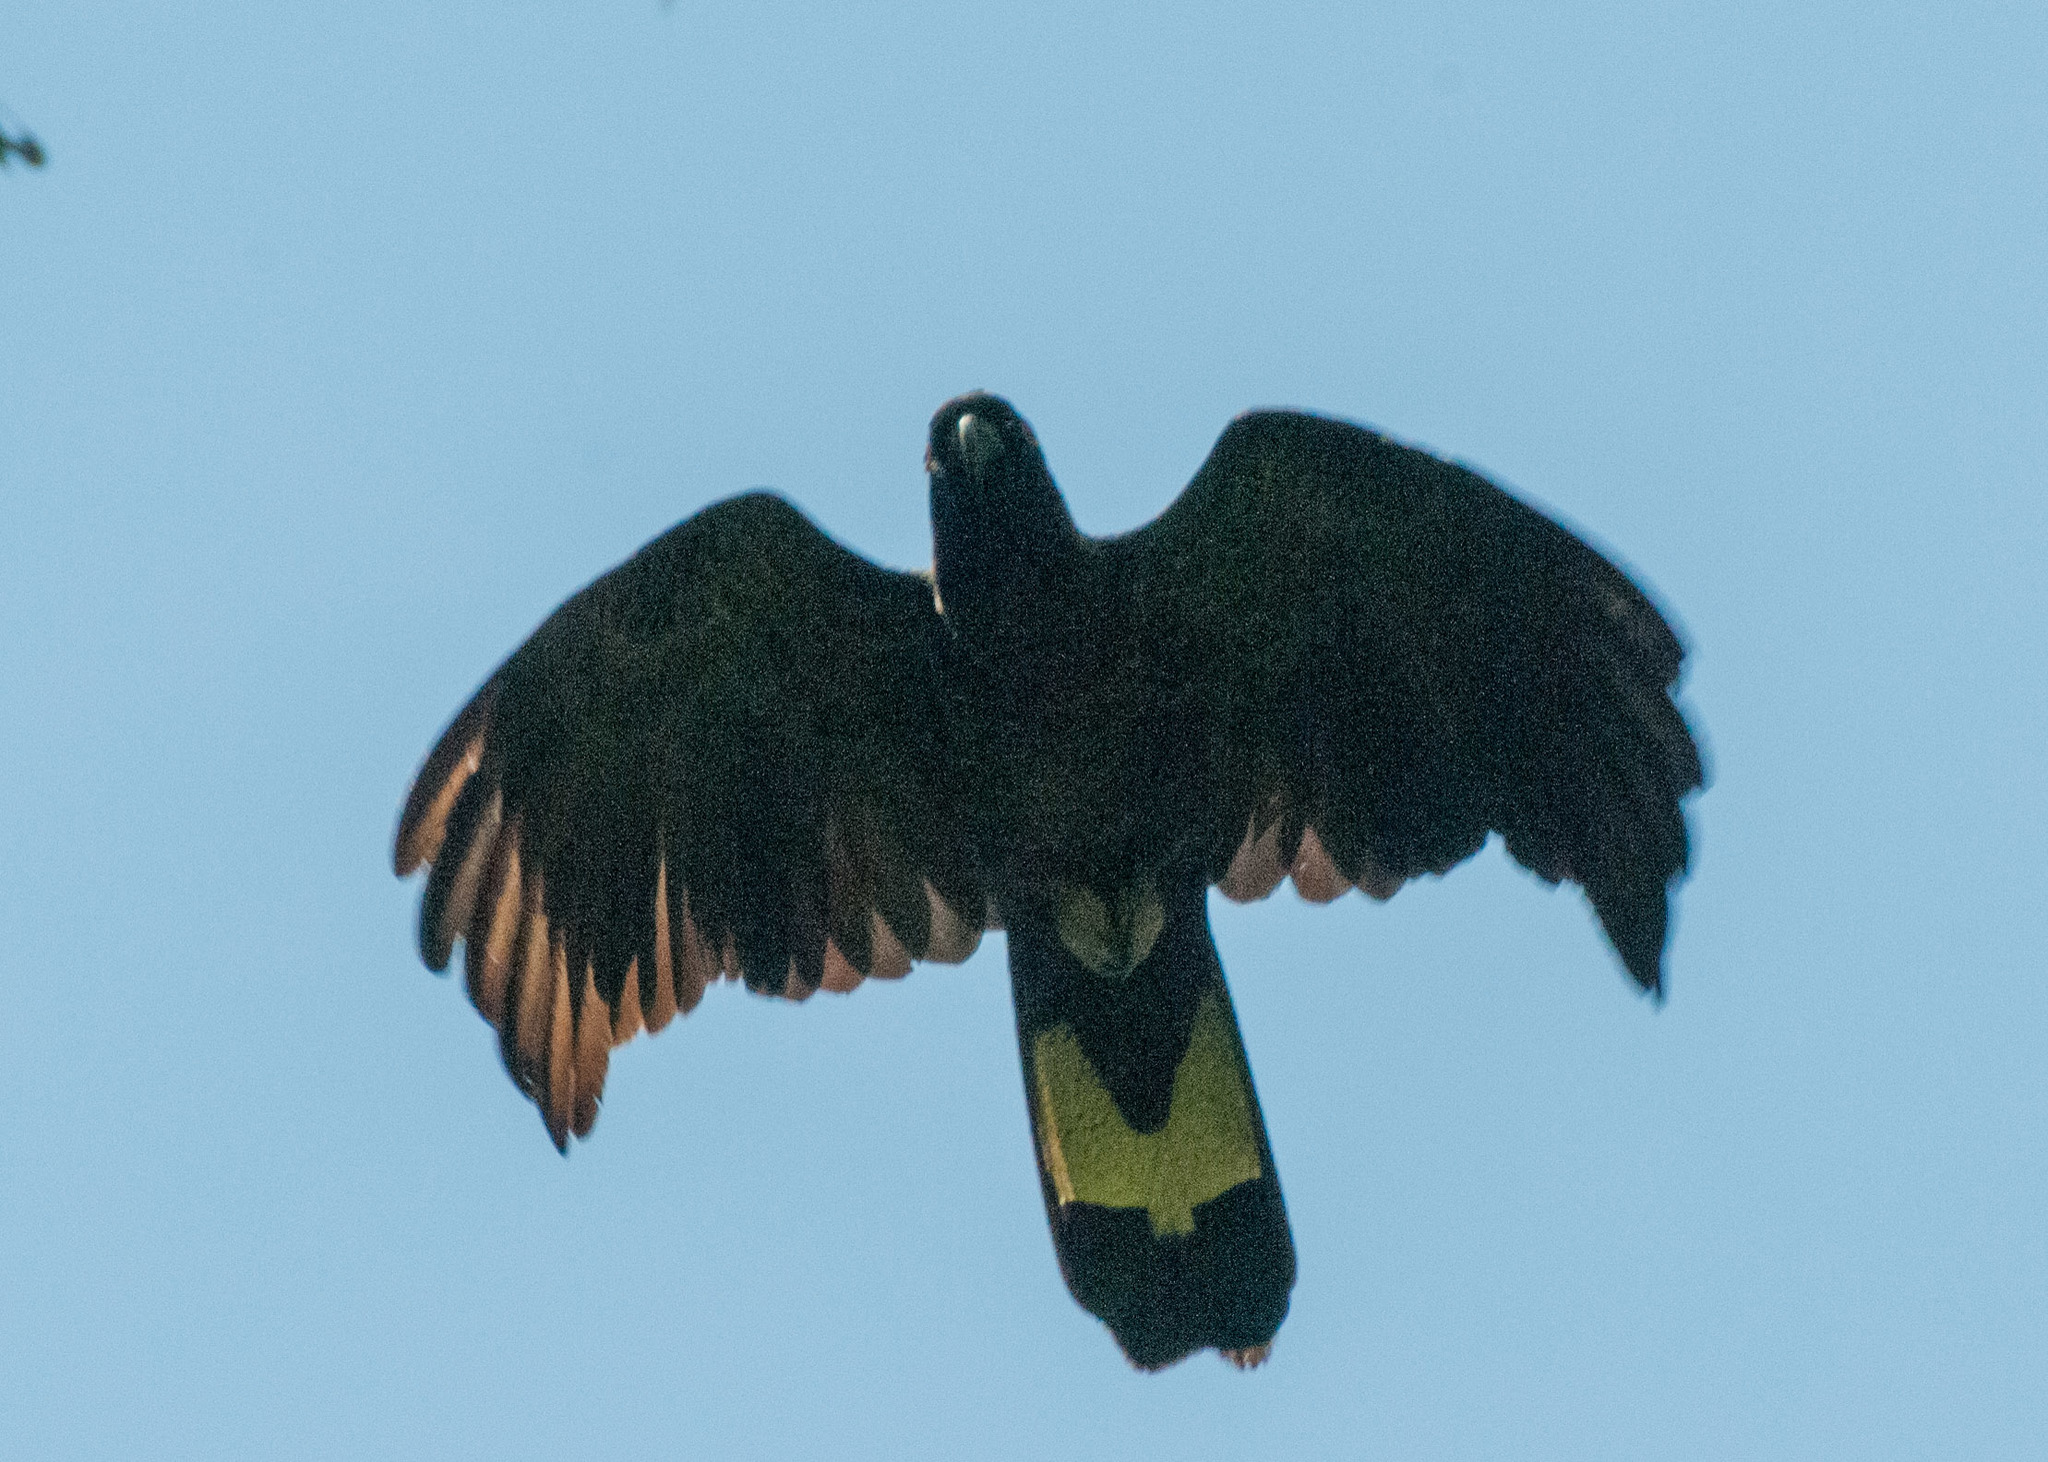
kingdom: Animalia
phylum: Chordata
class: Aves
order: Psittaciformes
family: Cacatuidae
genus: Zanda
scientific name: Zanda funerea
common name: Yellow-tailed black-cockatoo
